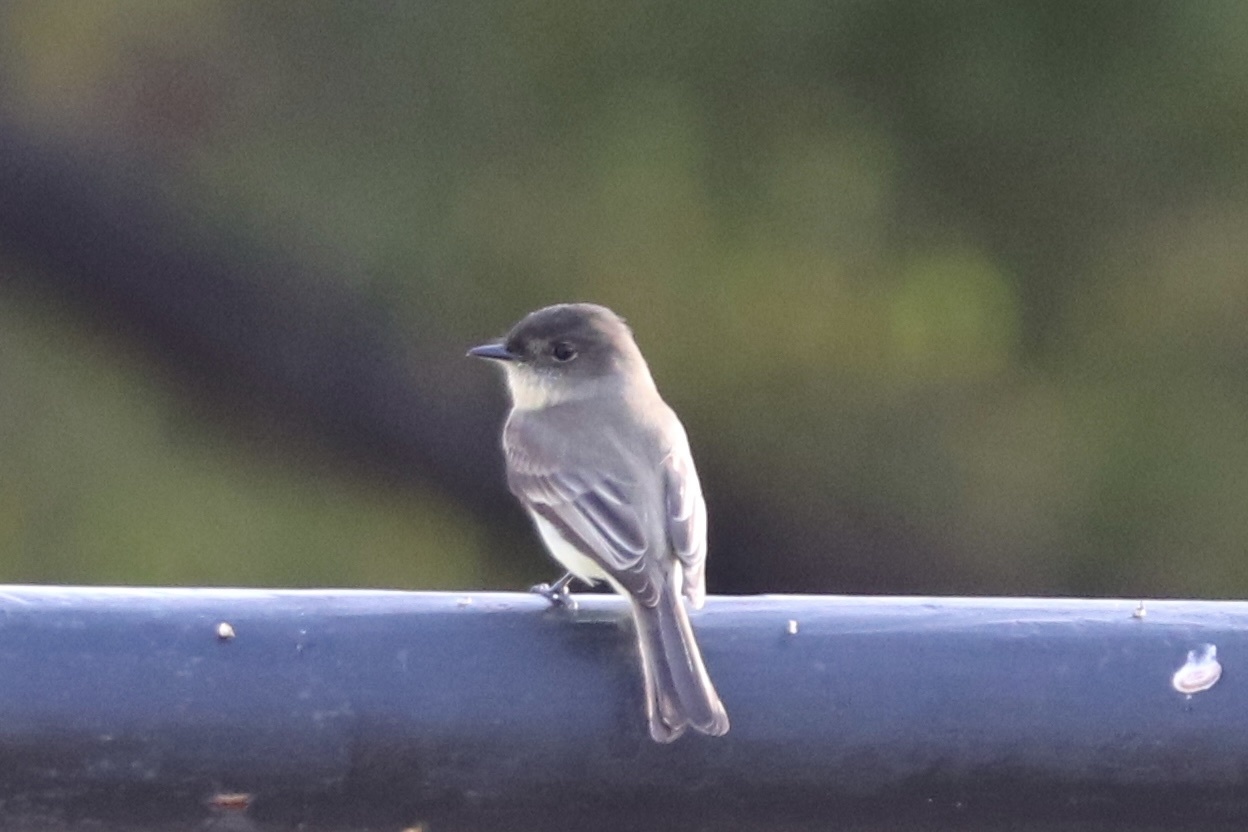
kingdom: Animalia
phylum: Chordata
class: Aves
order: Passeriformes
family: Tyrannidae
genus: Sayornis
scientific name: Sayornis phoebe
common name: Eastern phoebe
